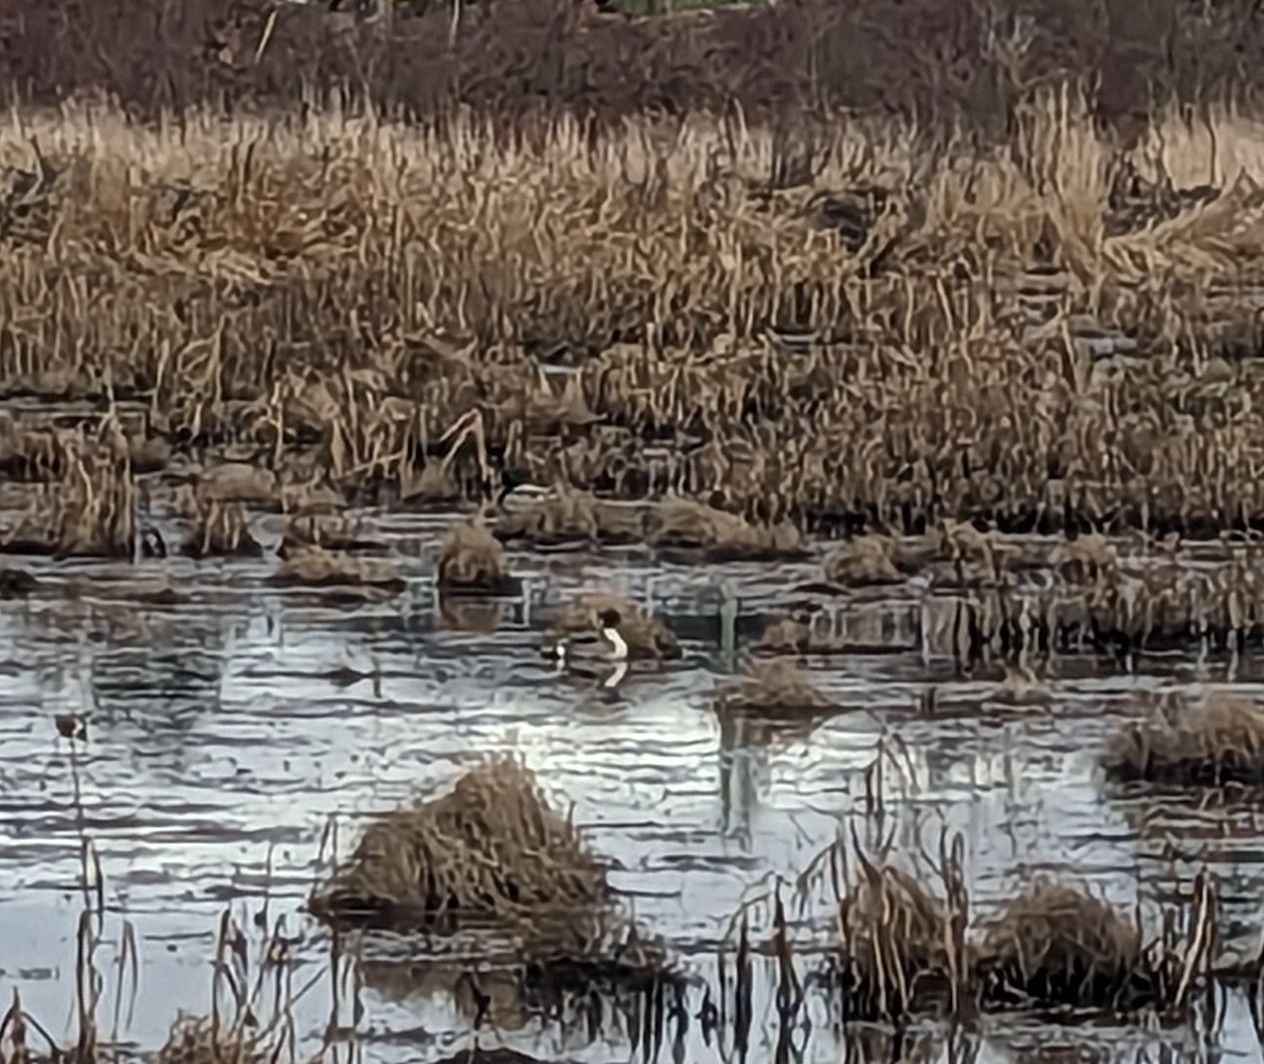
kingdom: Animalia
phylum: Chordata
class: Aves
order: Anseriformes
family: Anatidae
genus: Anas
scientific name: Anas acuta
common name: Northern pintail
